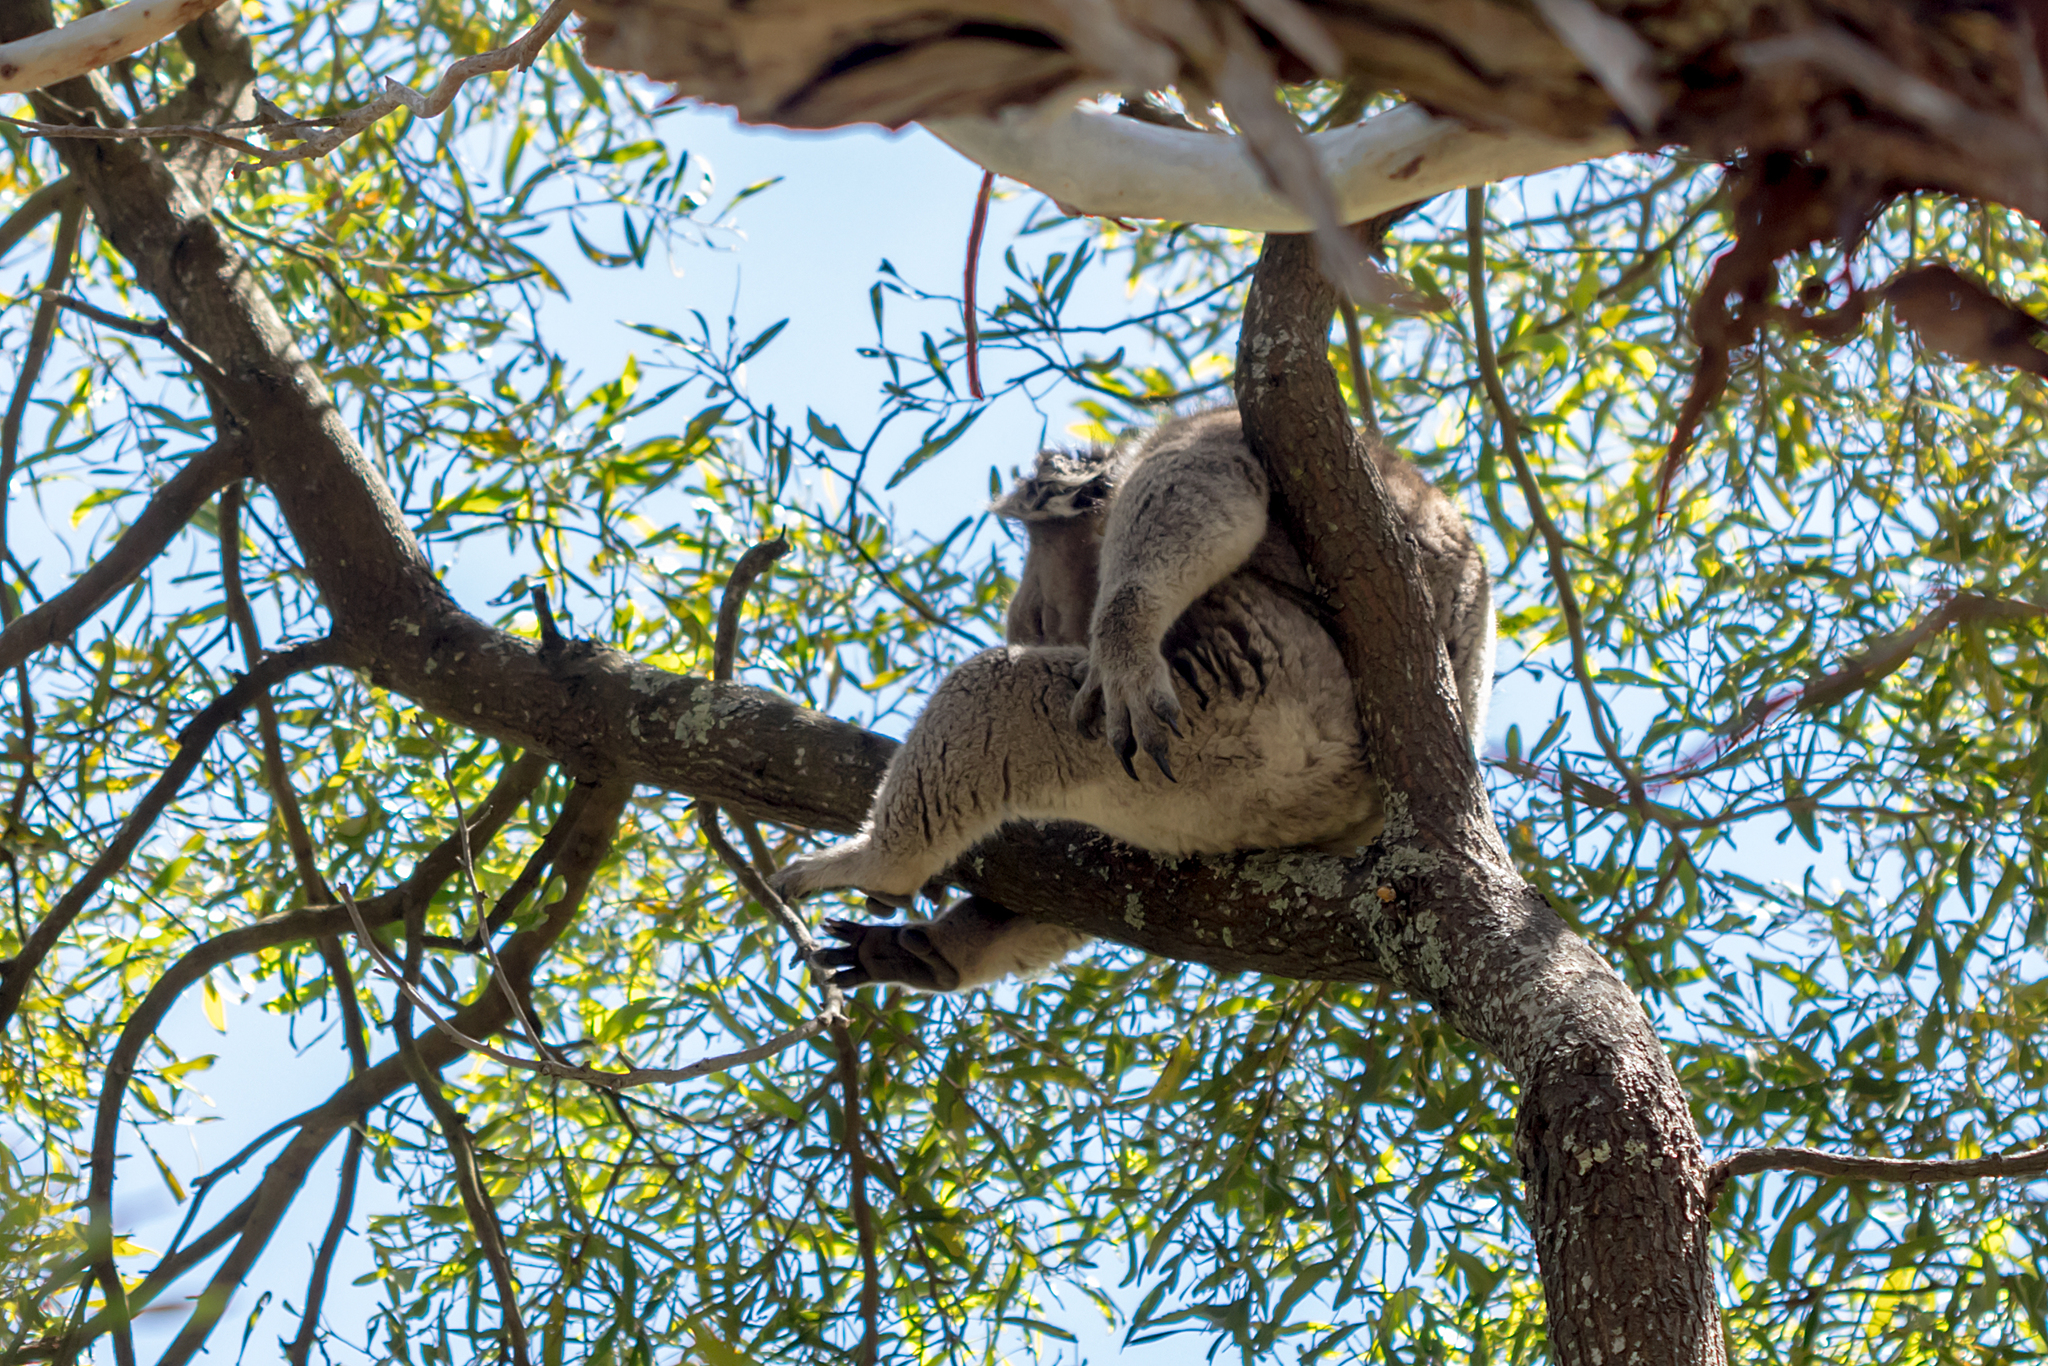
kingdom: Animalia
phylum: Chordata
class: Mammalia
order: Diprotodontia
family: Phascolarctidae
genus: Phascolarctos
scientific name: Phascolarctos cinereus
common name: Koala
